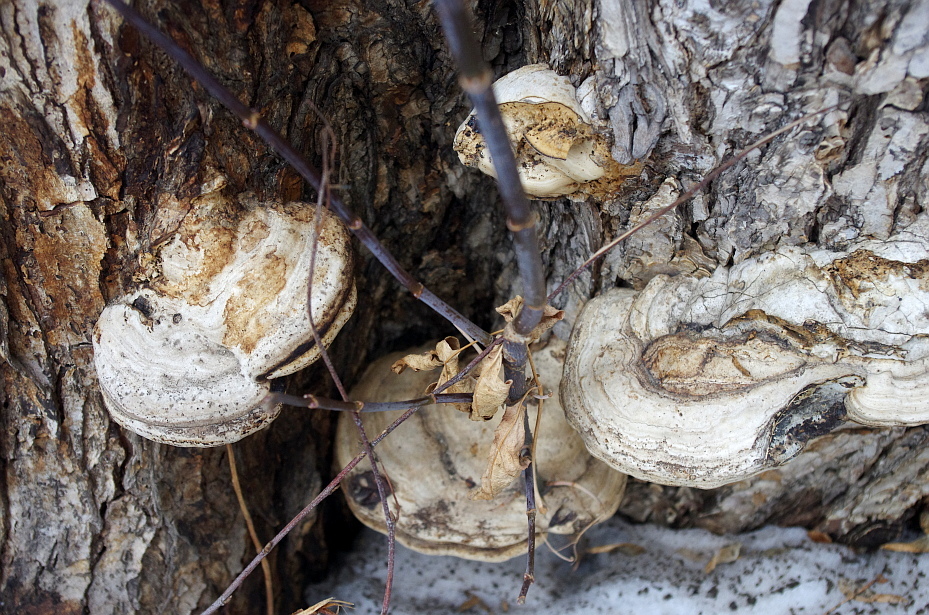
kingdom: Fungi
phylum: Basidiomycota
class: Agaricomycetes
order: Polyporales
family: Polyporaceae
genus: Fomes
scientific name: Fomes fomentarius
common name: Hoof fungus
